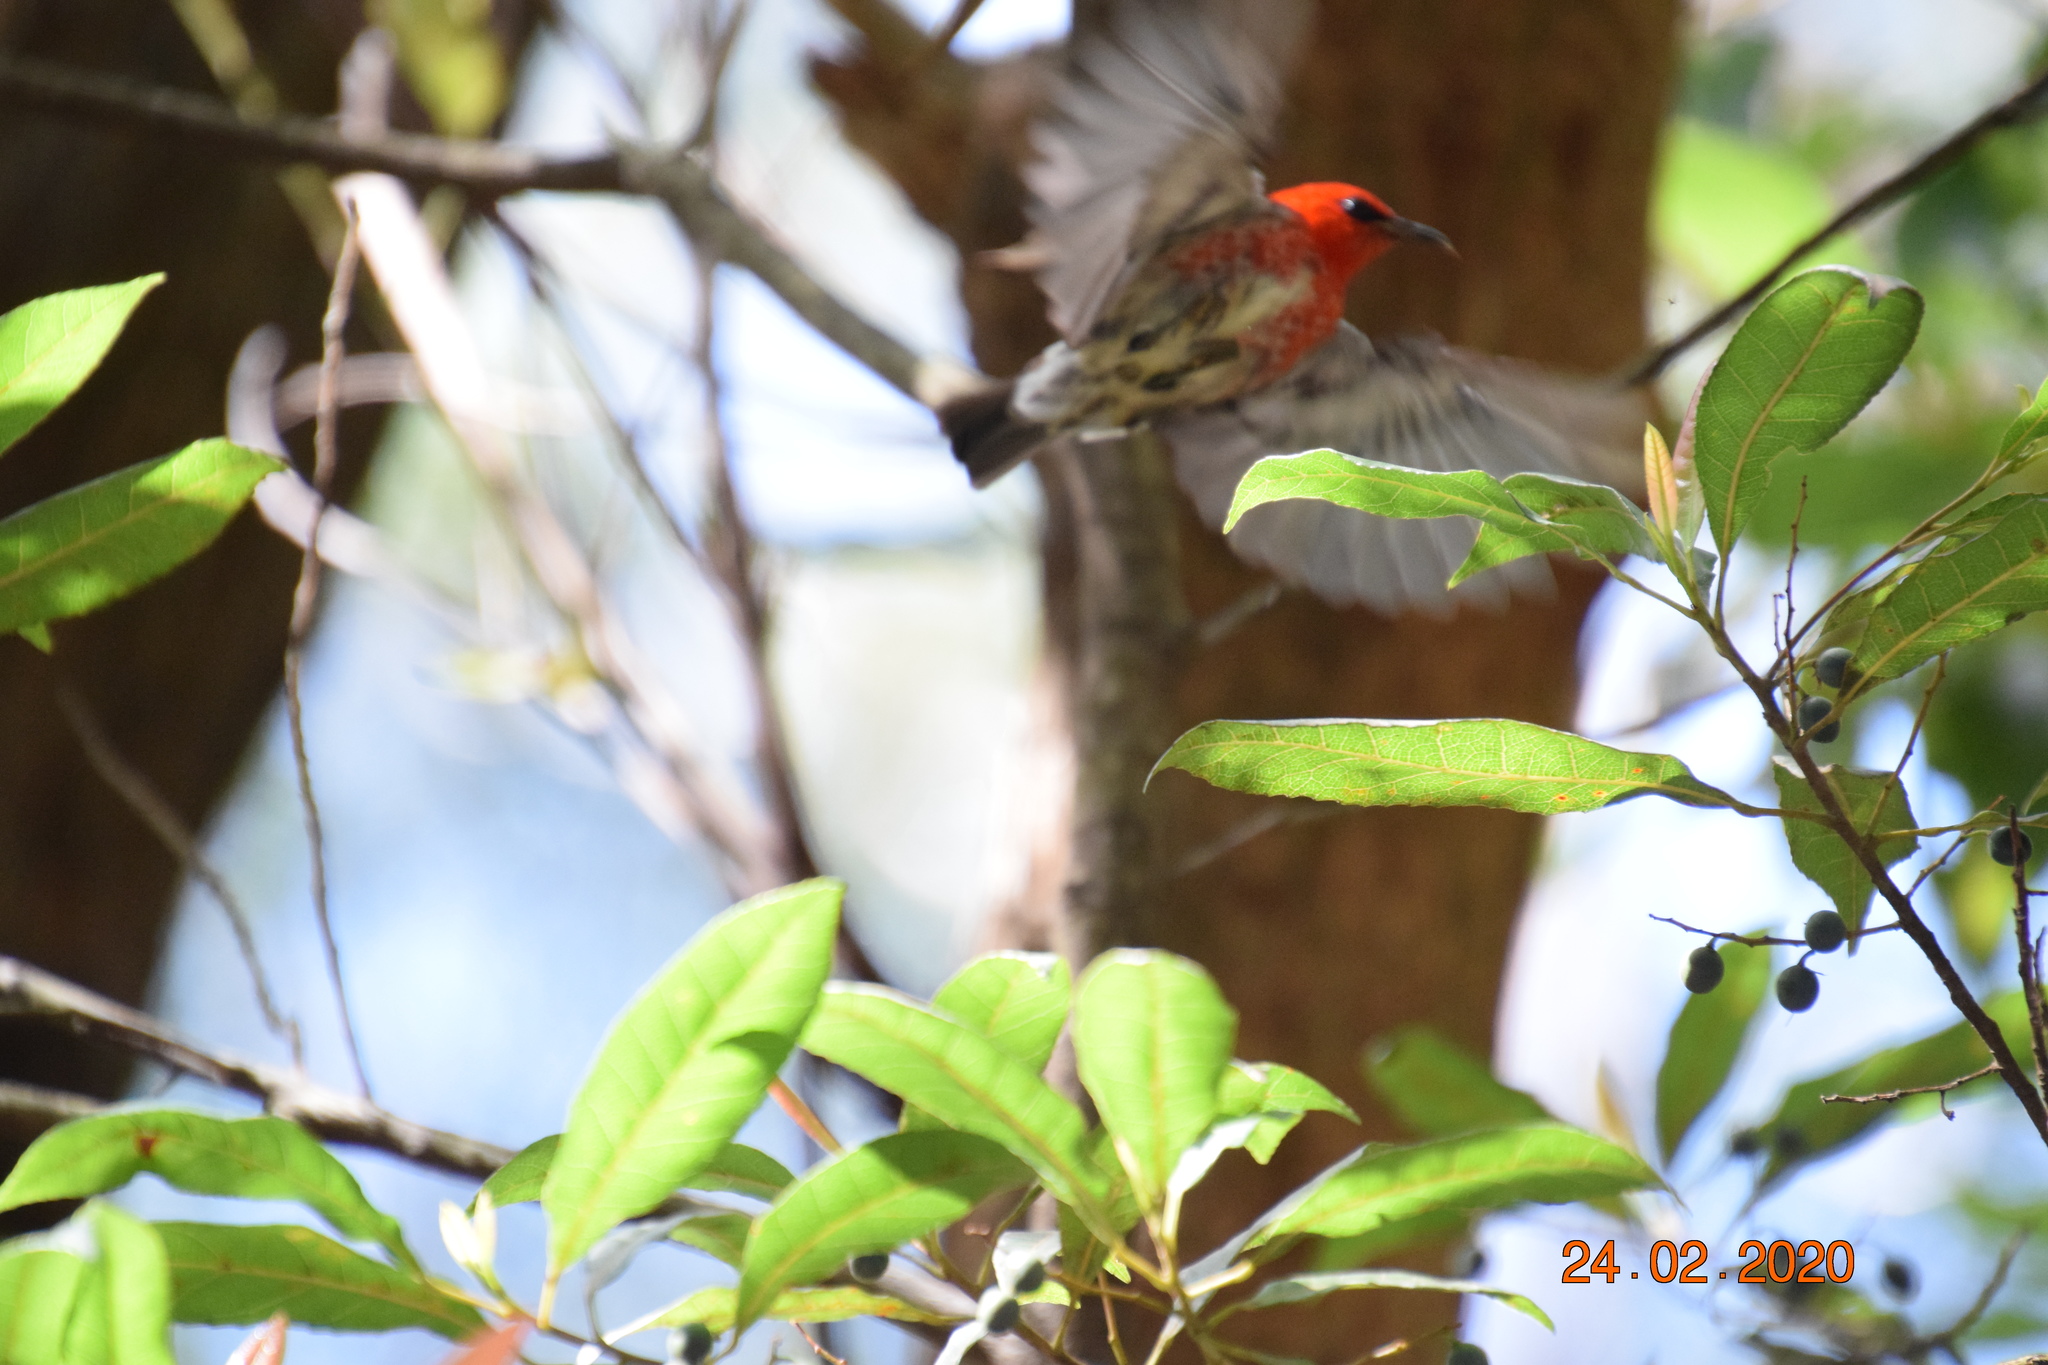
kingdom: Animalia
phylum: Chordata
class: Aves
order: Passeriformes
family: Meliphagidae
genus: Myzomela
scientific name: Myzomela sanguinolenta
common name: Scarlet myzomela
